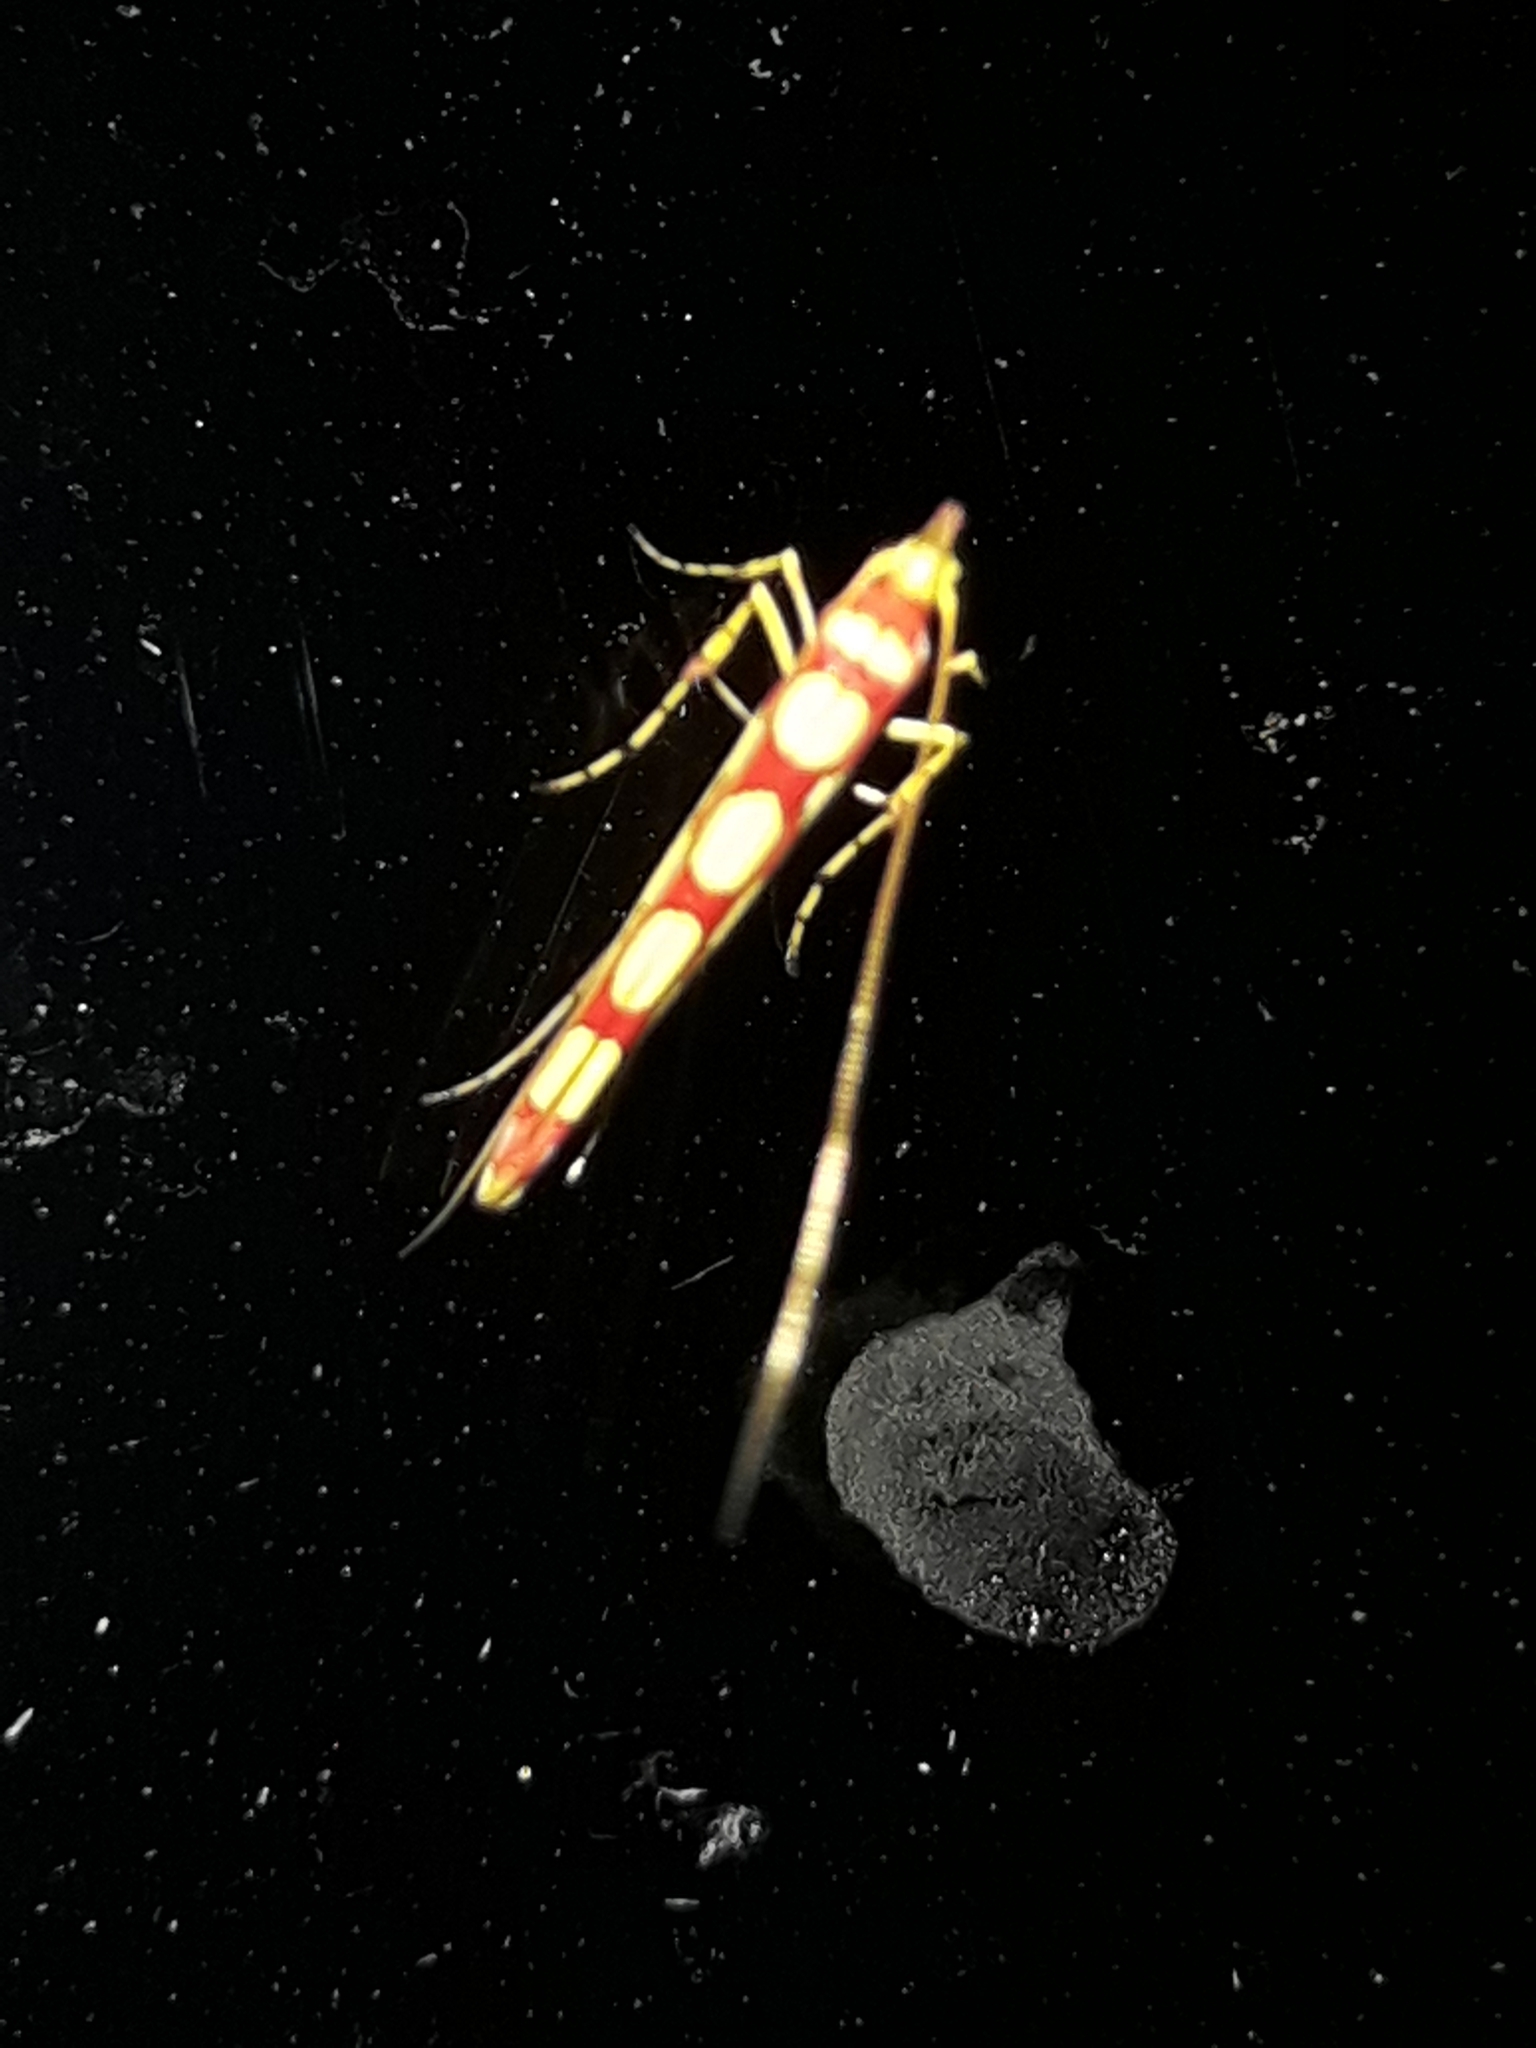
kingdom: Animalia
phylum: Arthropoda
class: Insecta
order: Lepidoptera
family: Gracillariidae
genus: Macarostola
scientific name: Macarostola miniella
